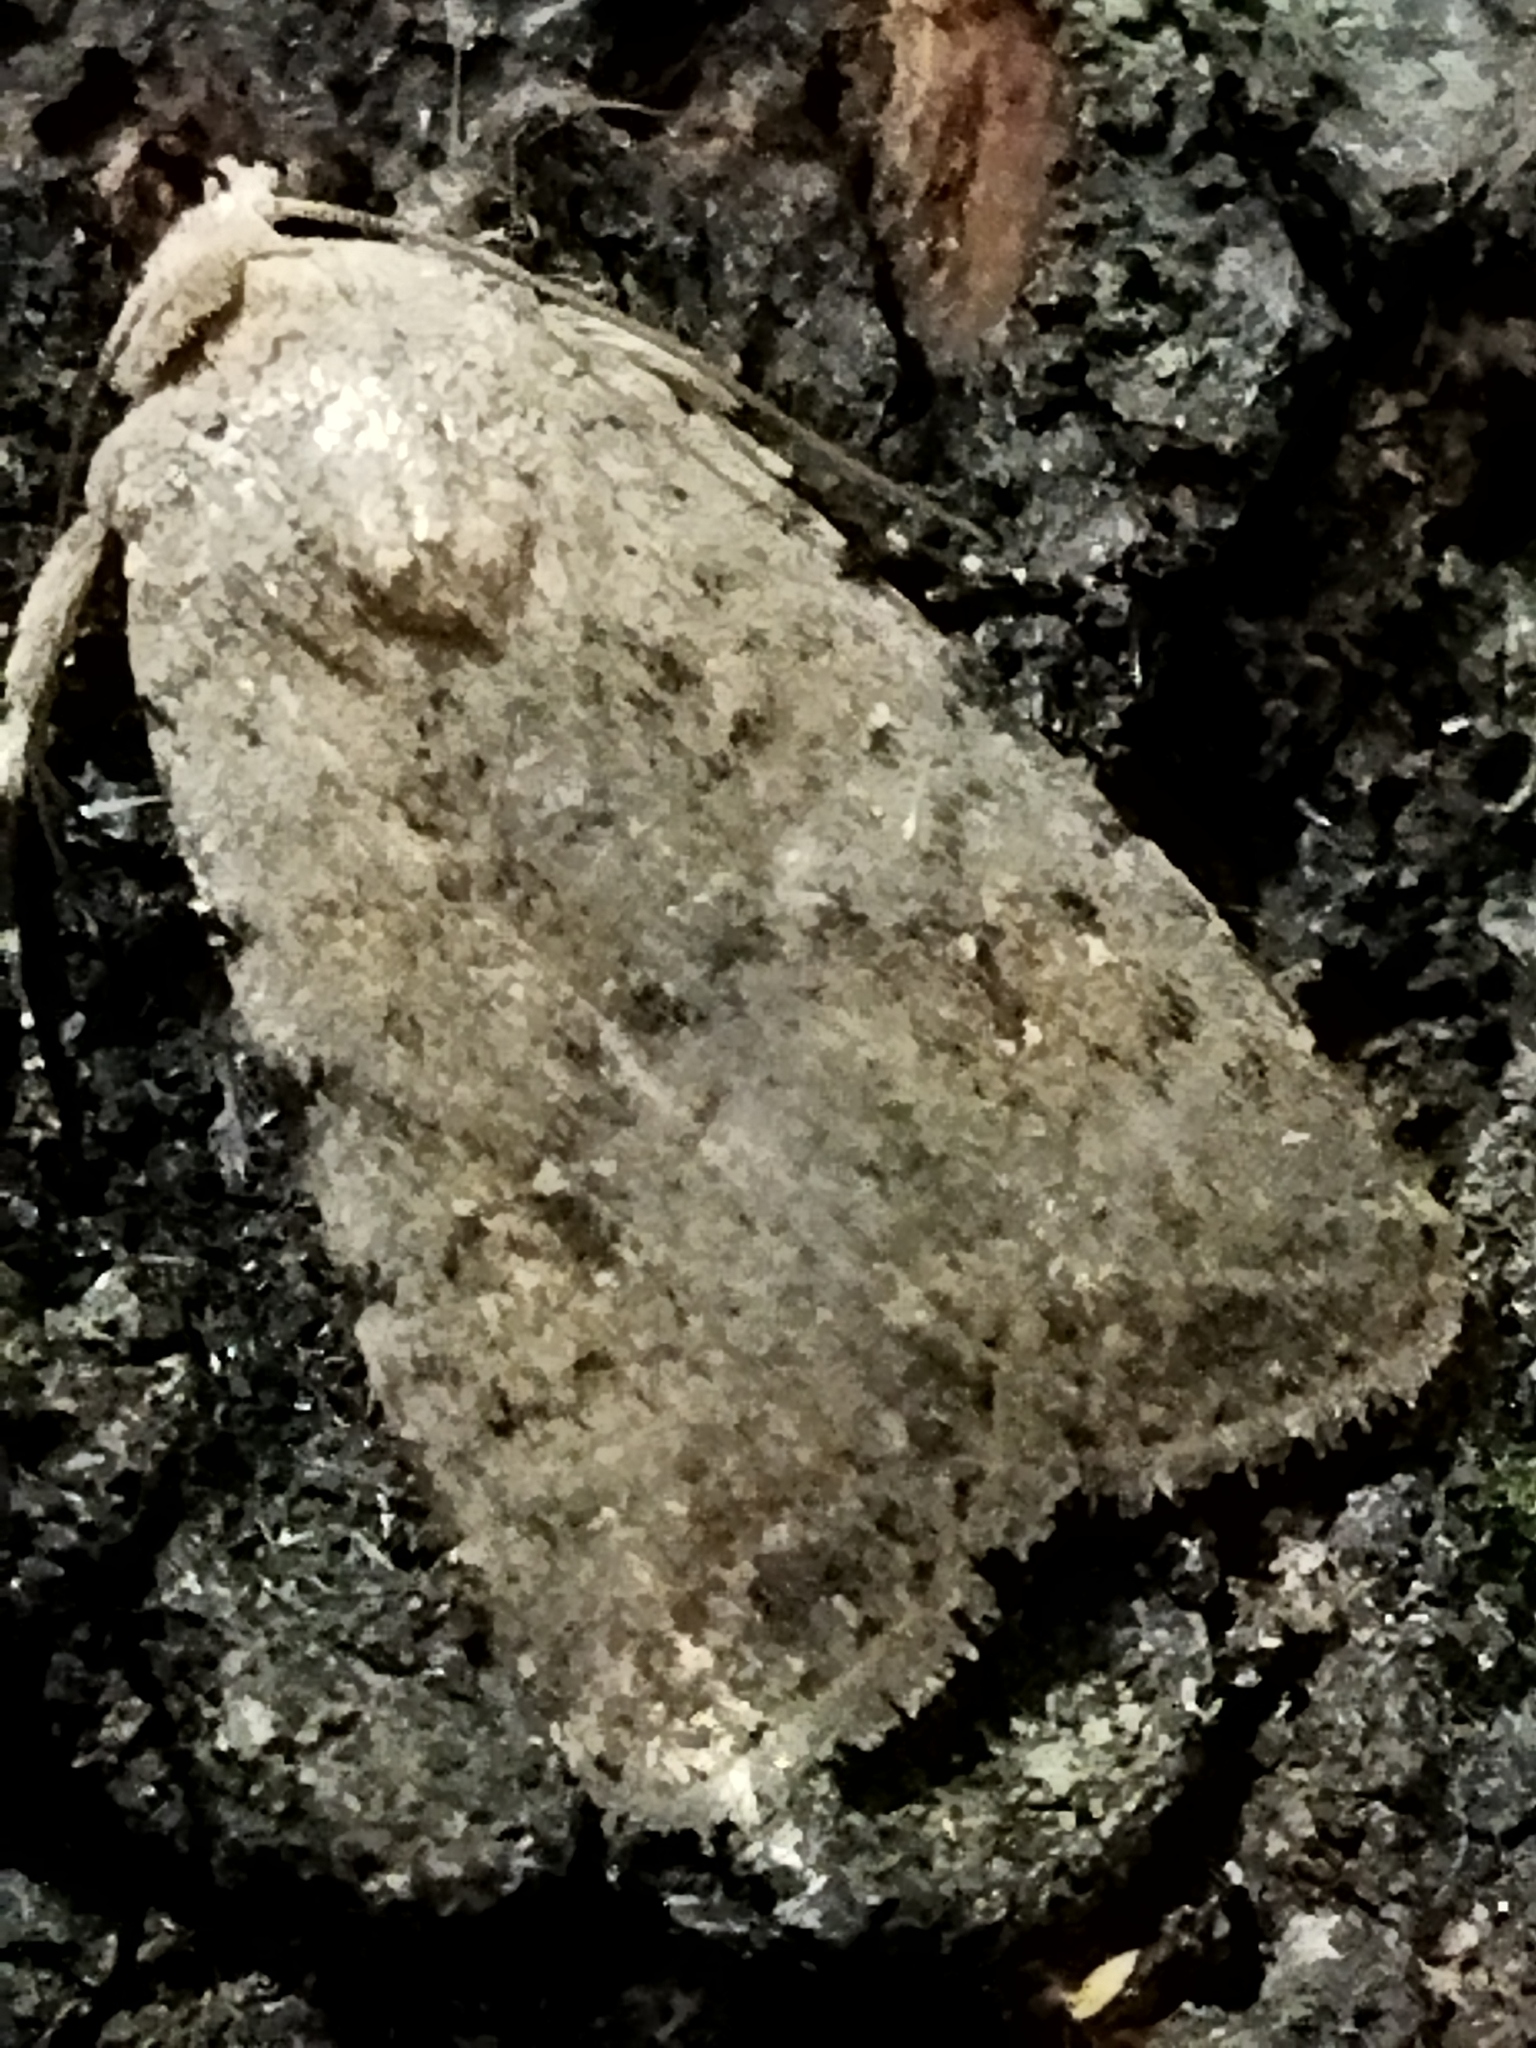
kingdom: Animalia
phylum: Arthropoda
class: Insecta
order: Lepidoptera
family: Noctuidae
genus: Caradrina
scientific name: Caradrina clavipalpis
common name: Pale mottled willow
